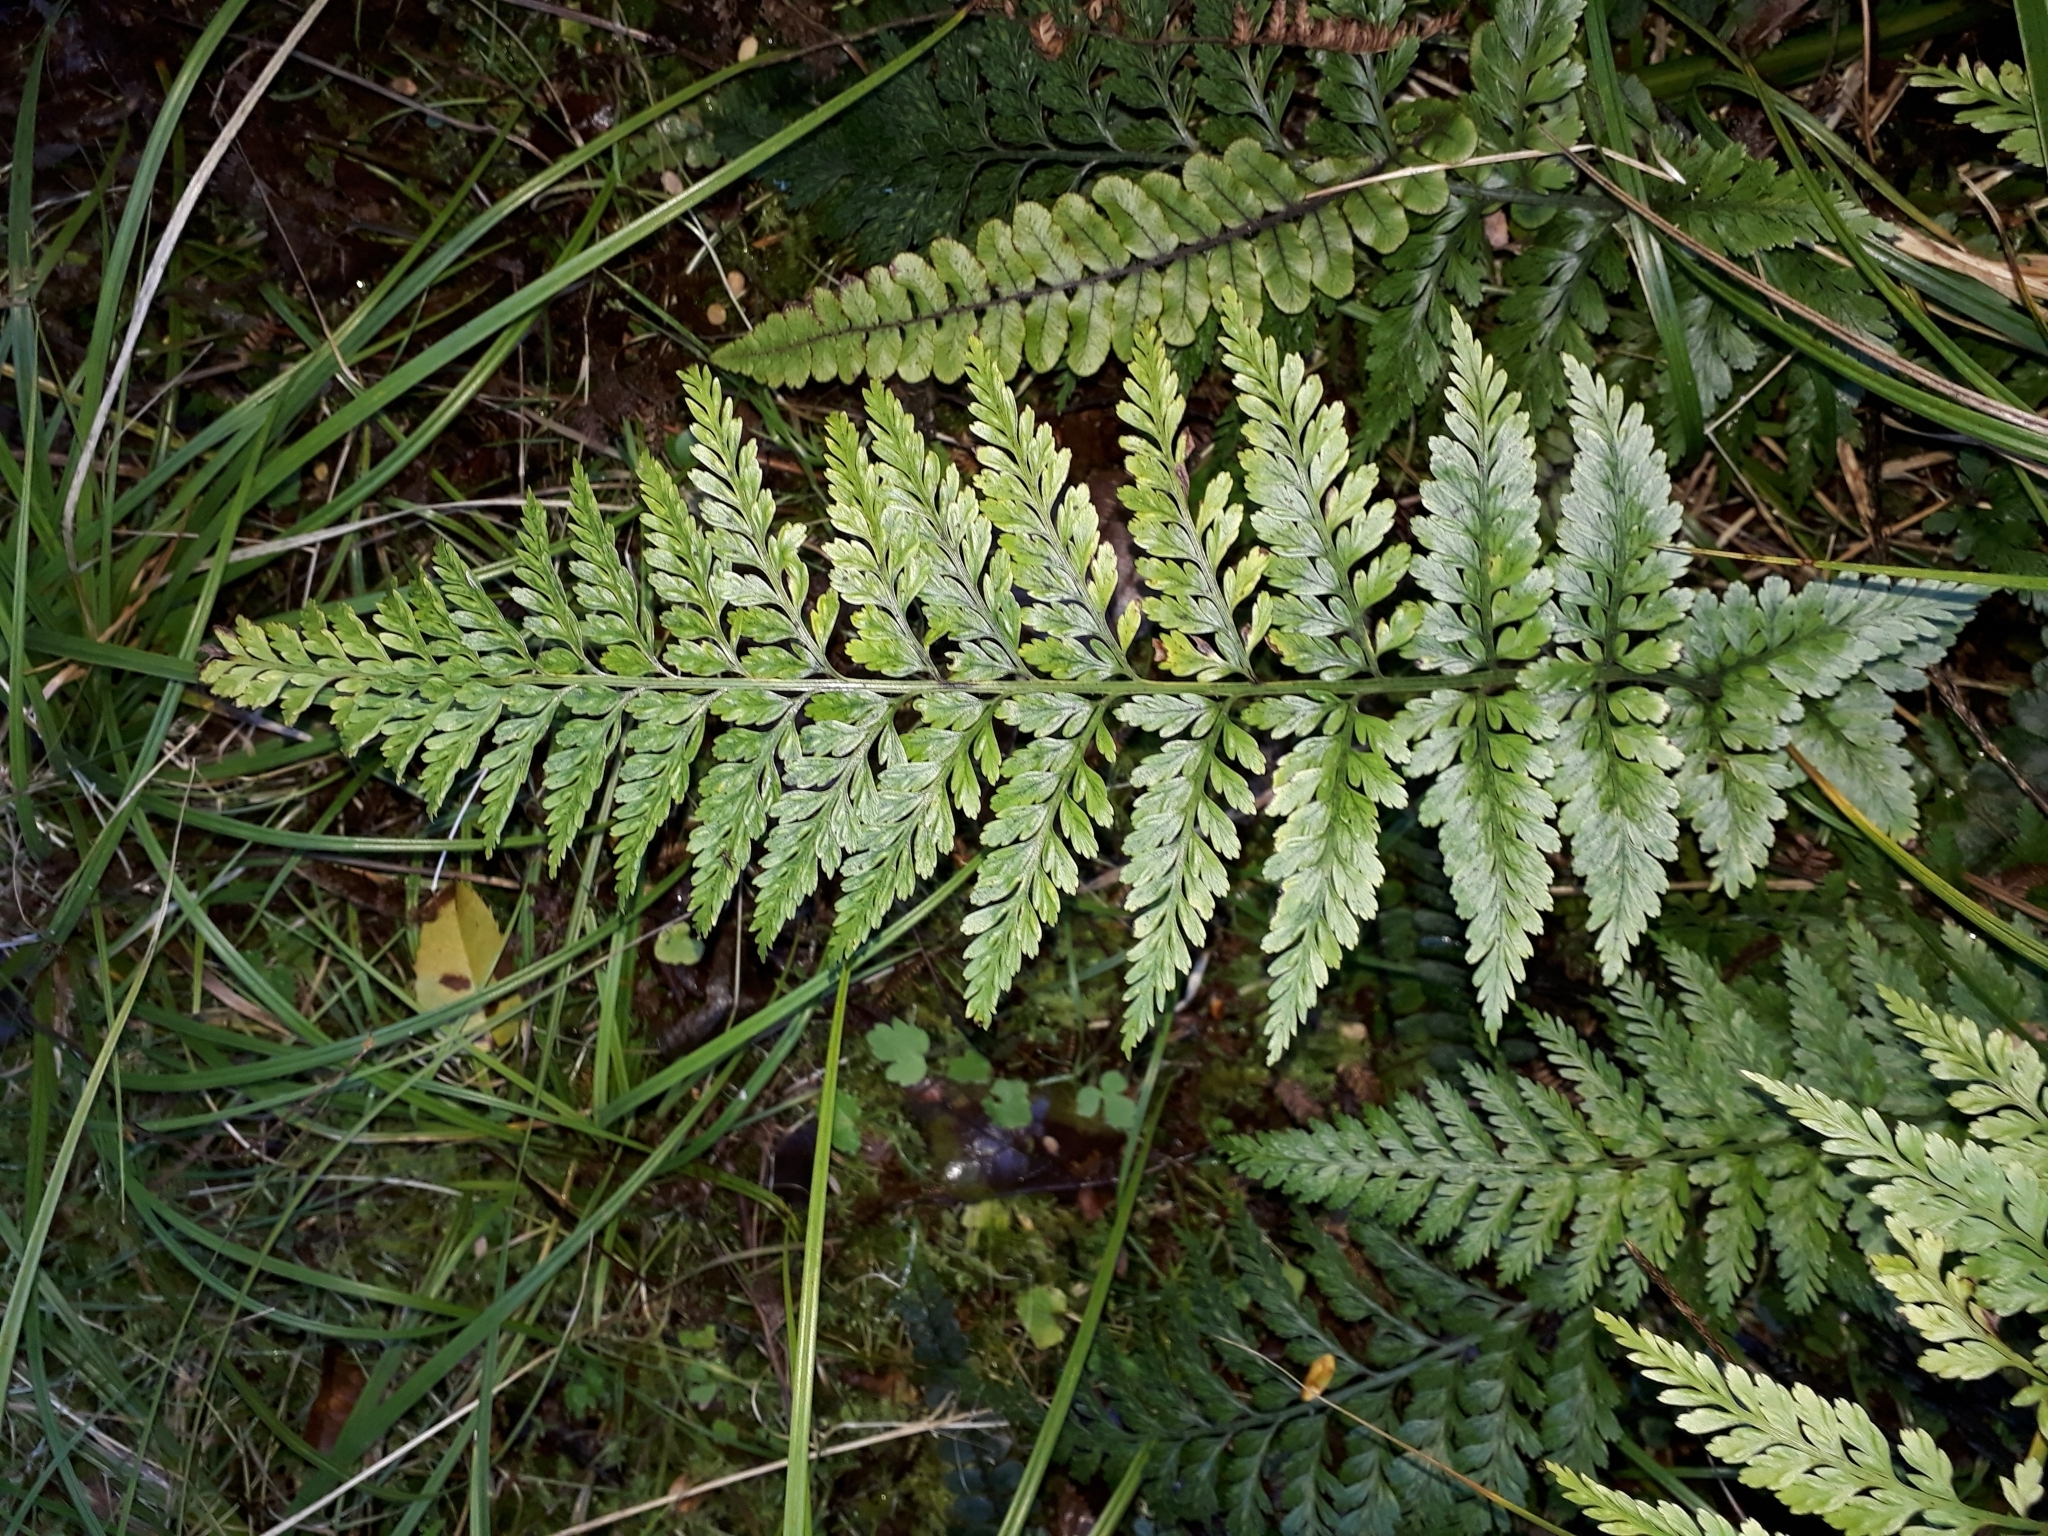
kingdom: Plantae
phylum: Tracheophyta
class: Polypodiopsida
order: Polypodiales
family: Aspleniaceae
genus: Asplenium
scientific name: Asplenium
